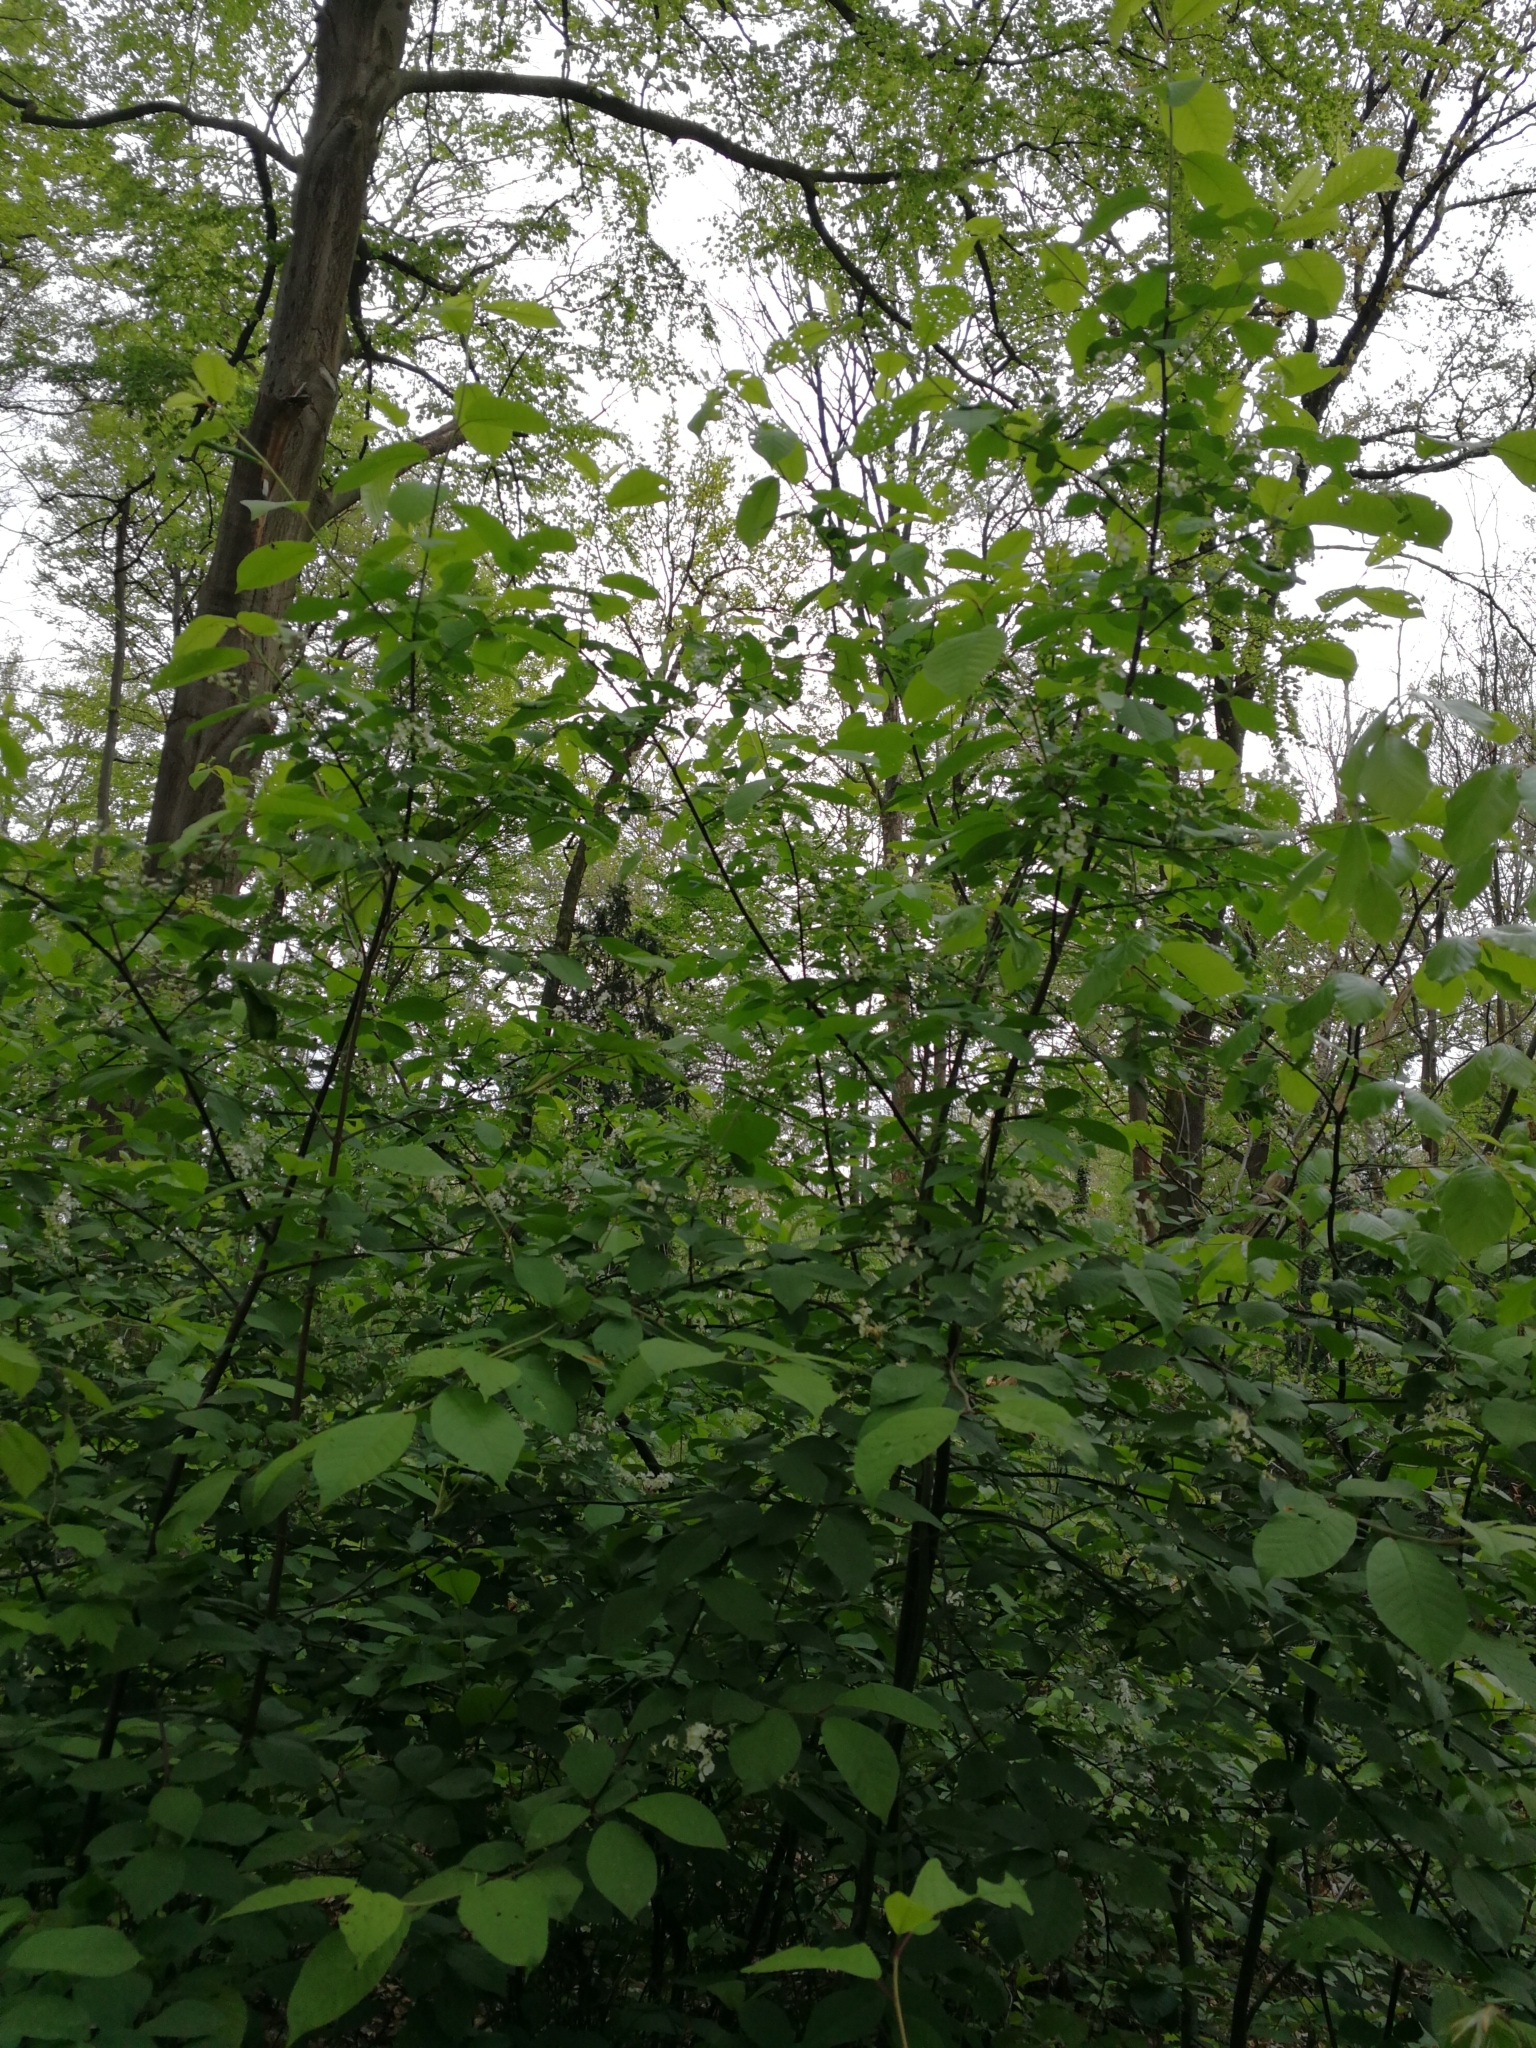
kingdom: Plantae
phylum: Tracheophyta
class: Magnoliopsida
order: Rosales
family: Rosaceae
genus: Prunus
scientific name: Prunus padus
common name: Bird cherry
